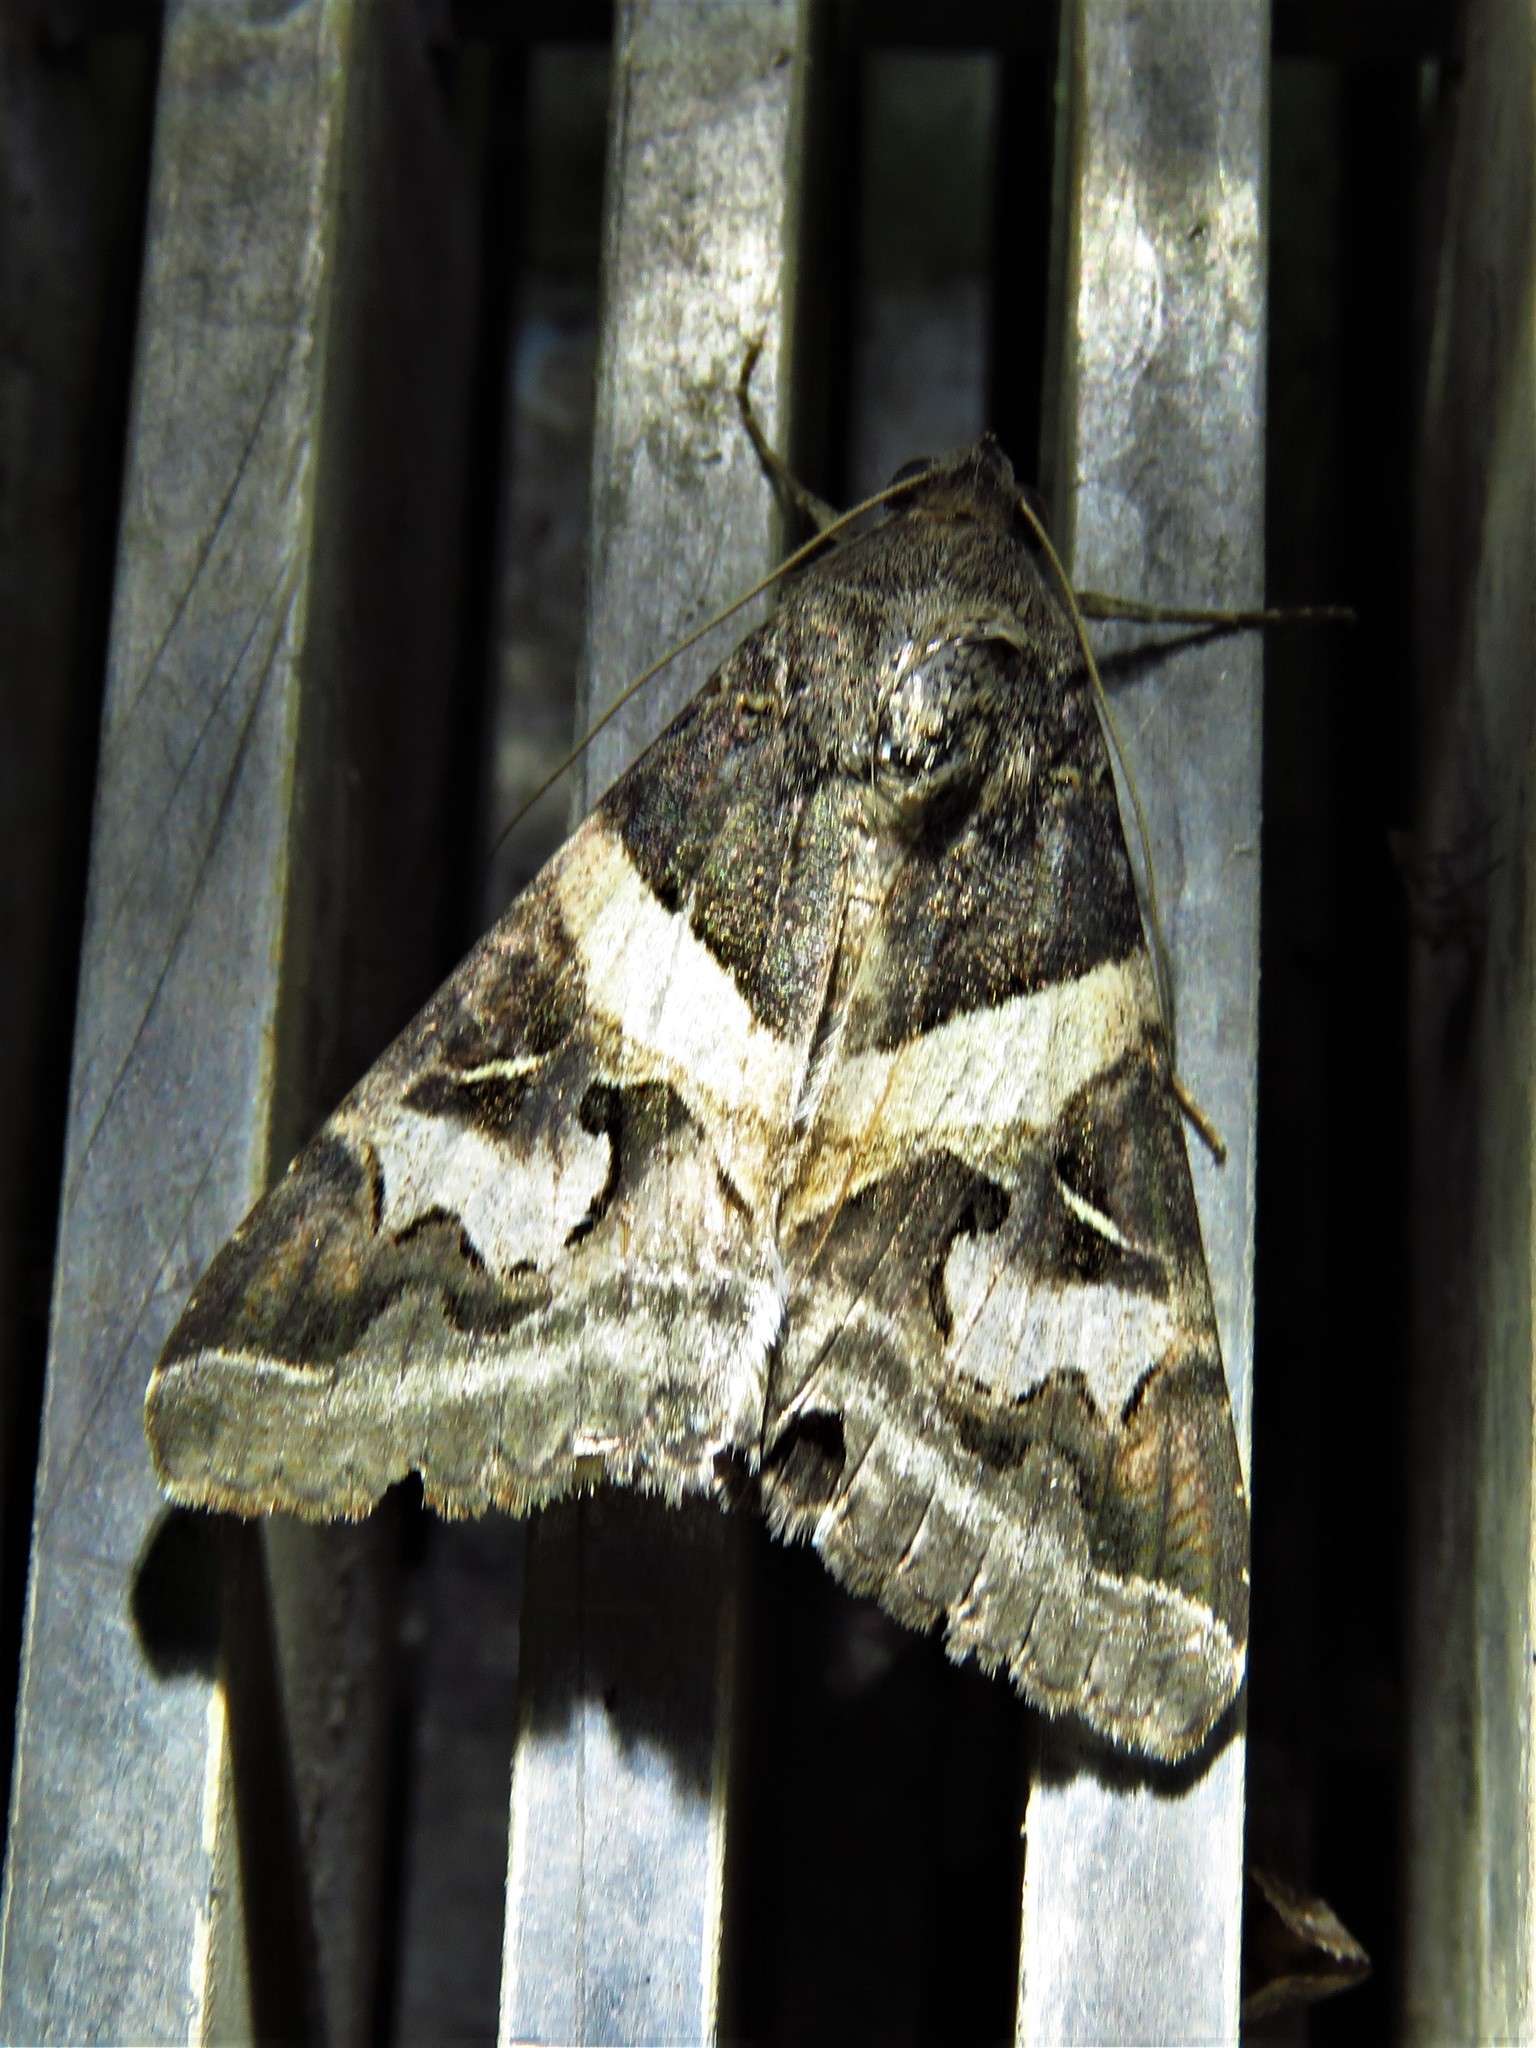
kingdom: Animalia
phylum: Arthropoda
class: Insecta
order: Lepidoptera
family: Erebidae
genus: Melipotis
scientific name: Melipotis indomita
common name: Moth
